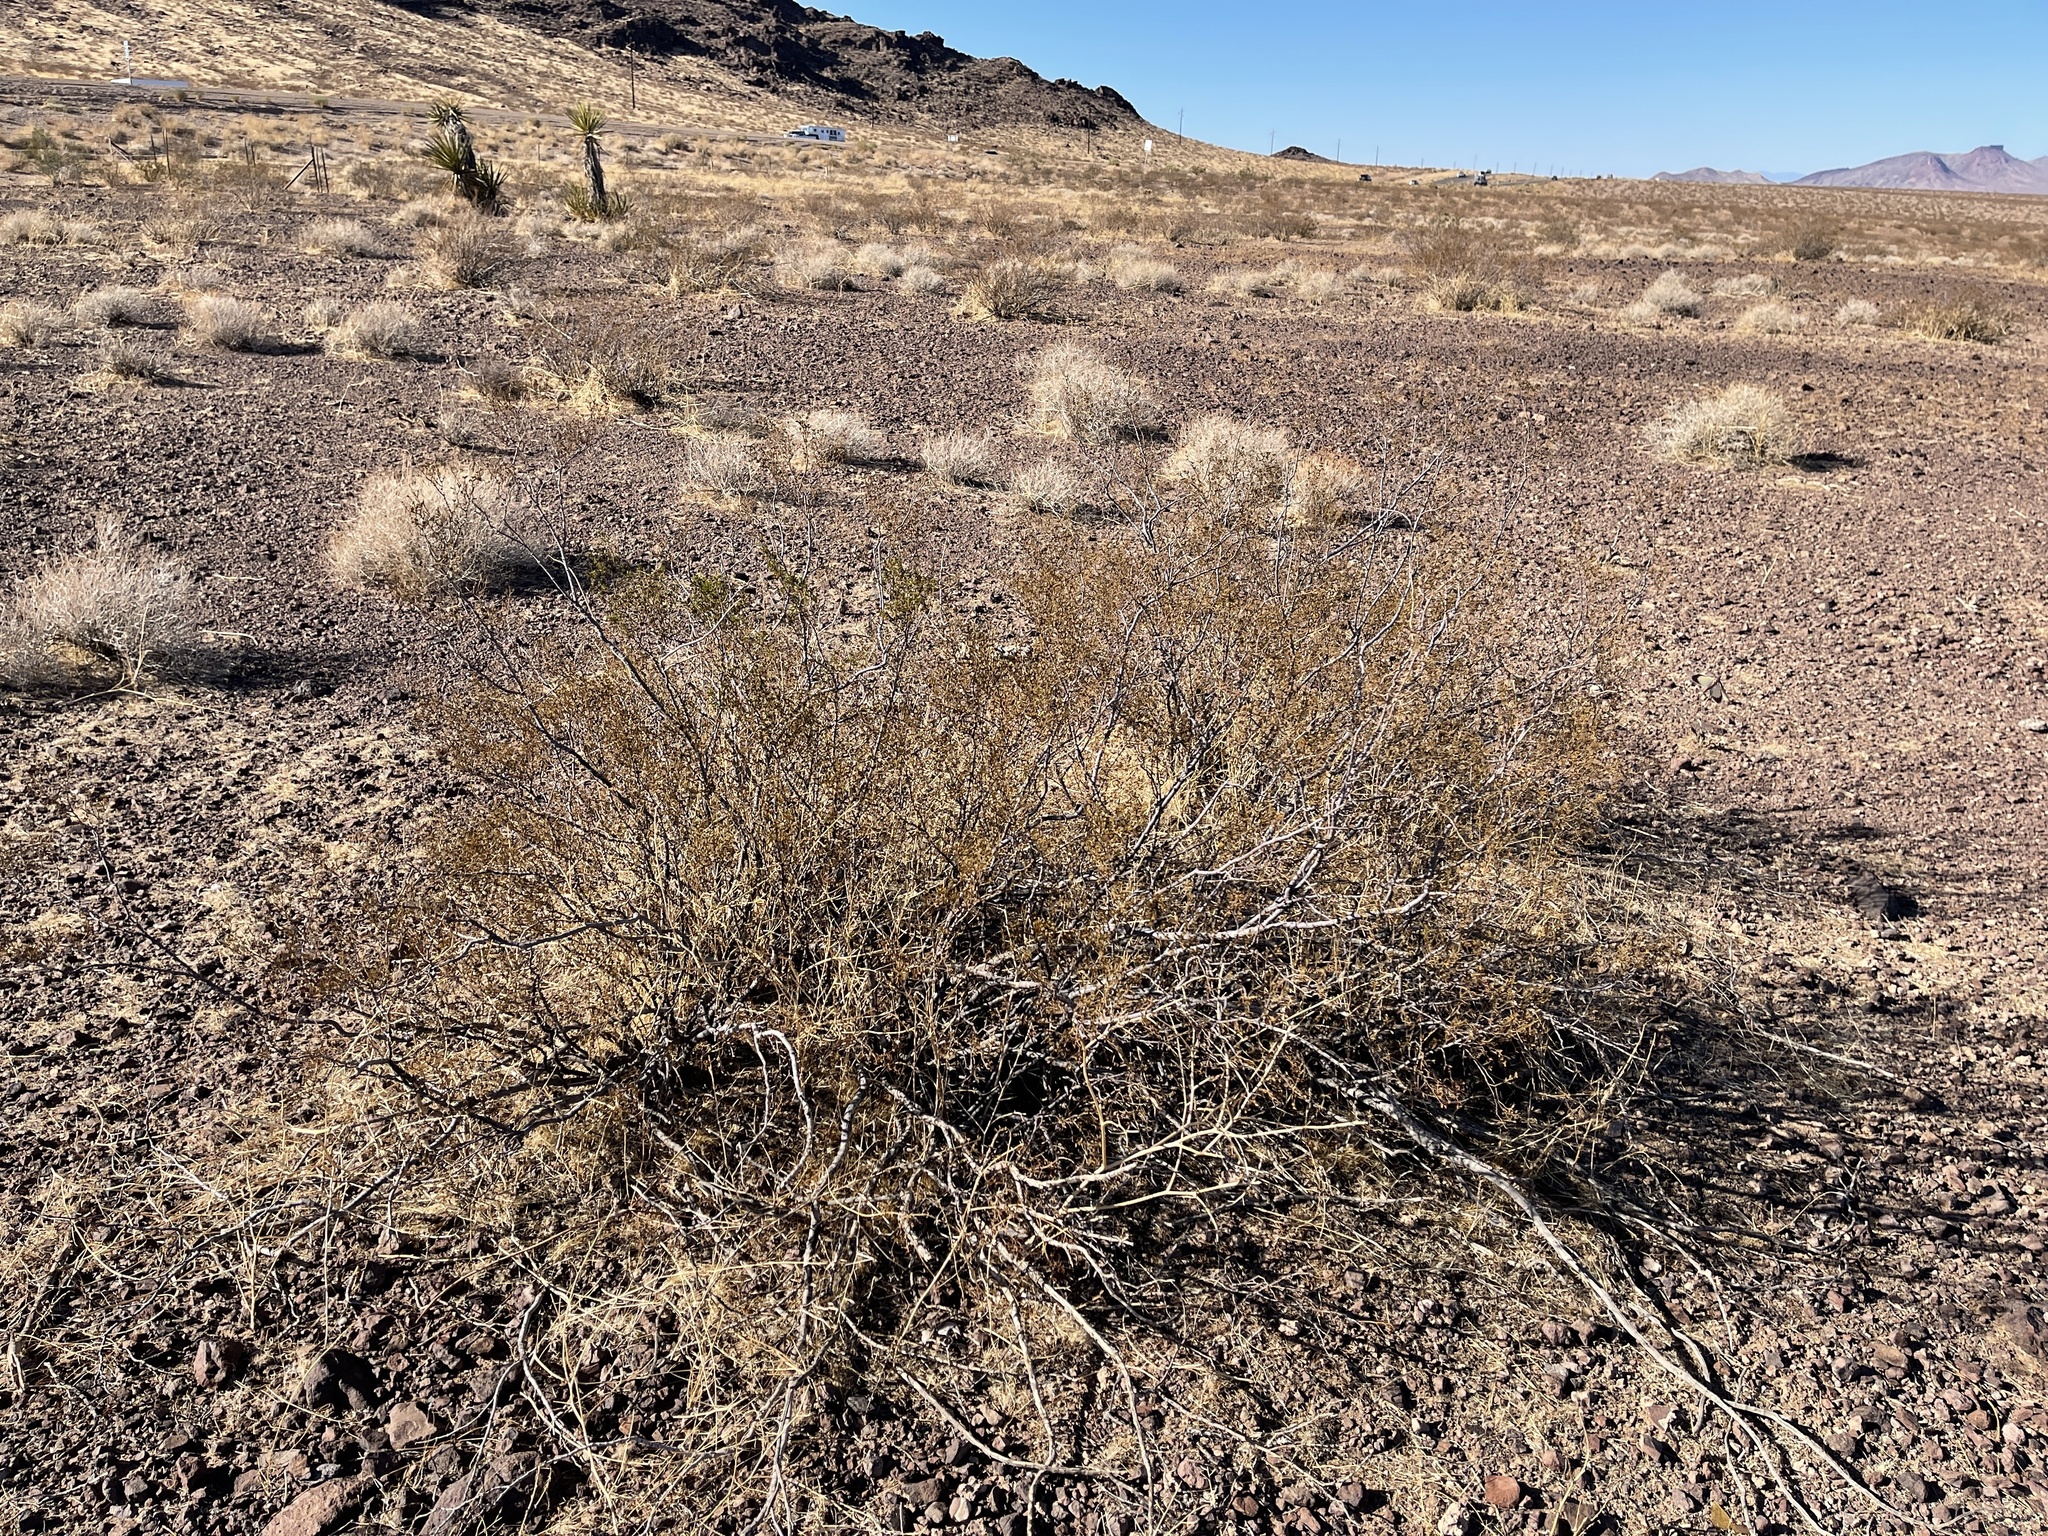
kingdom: Plantae
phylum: Tracheophyta
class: Magnoliopsida
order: Zygophyllales
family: Zygophyllaceae
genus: Larrea
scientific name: Larrea tridentata
